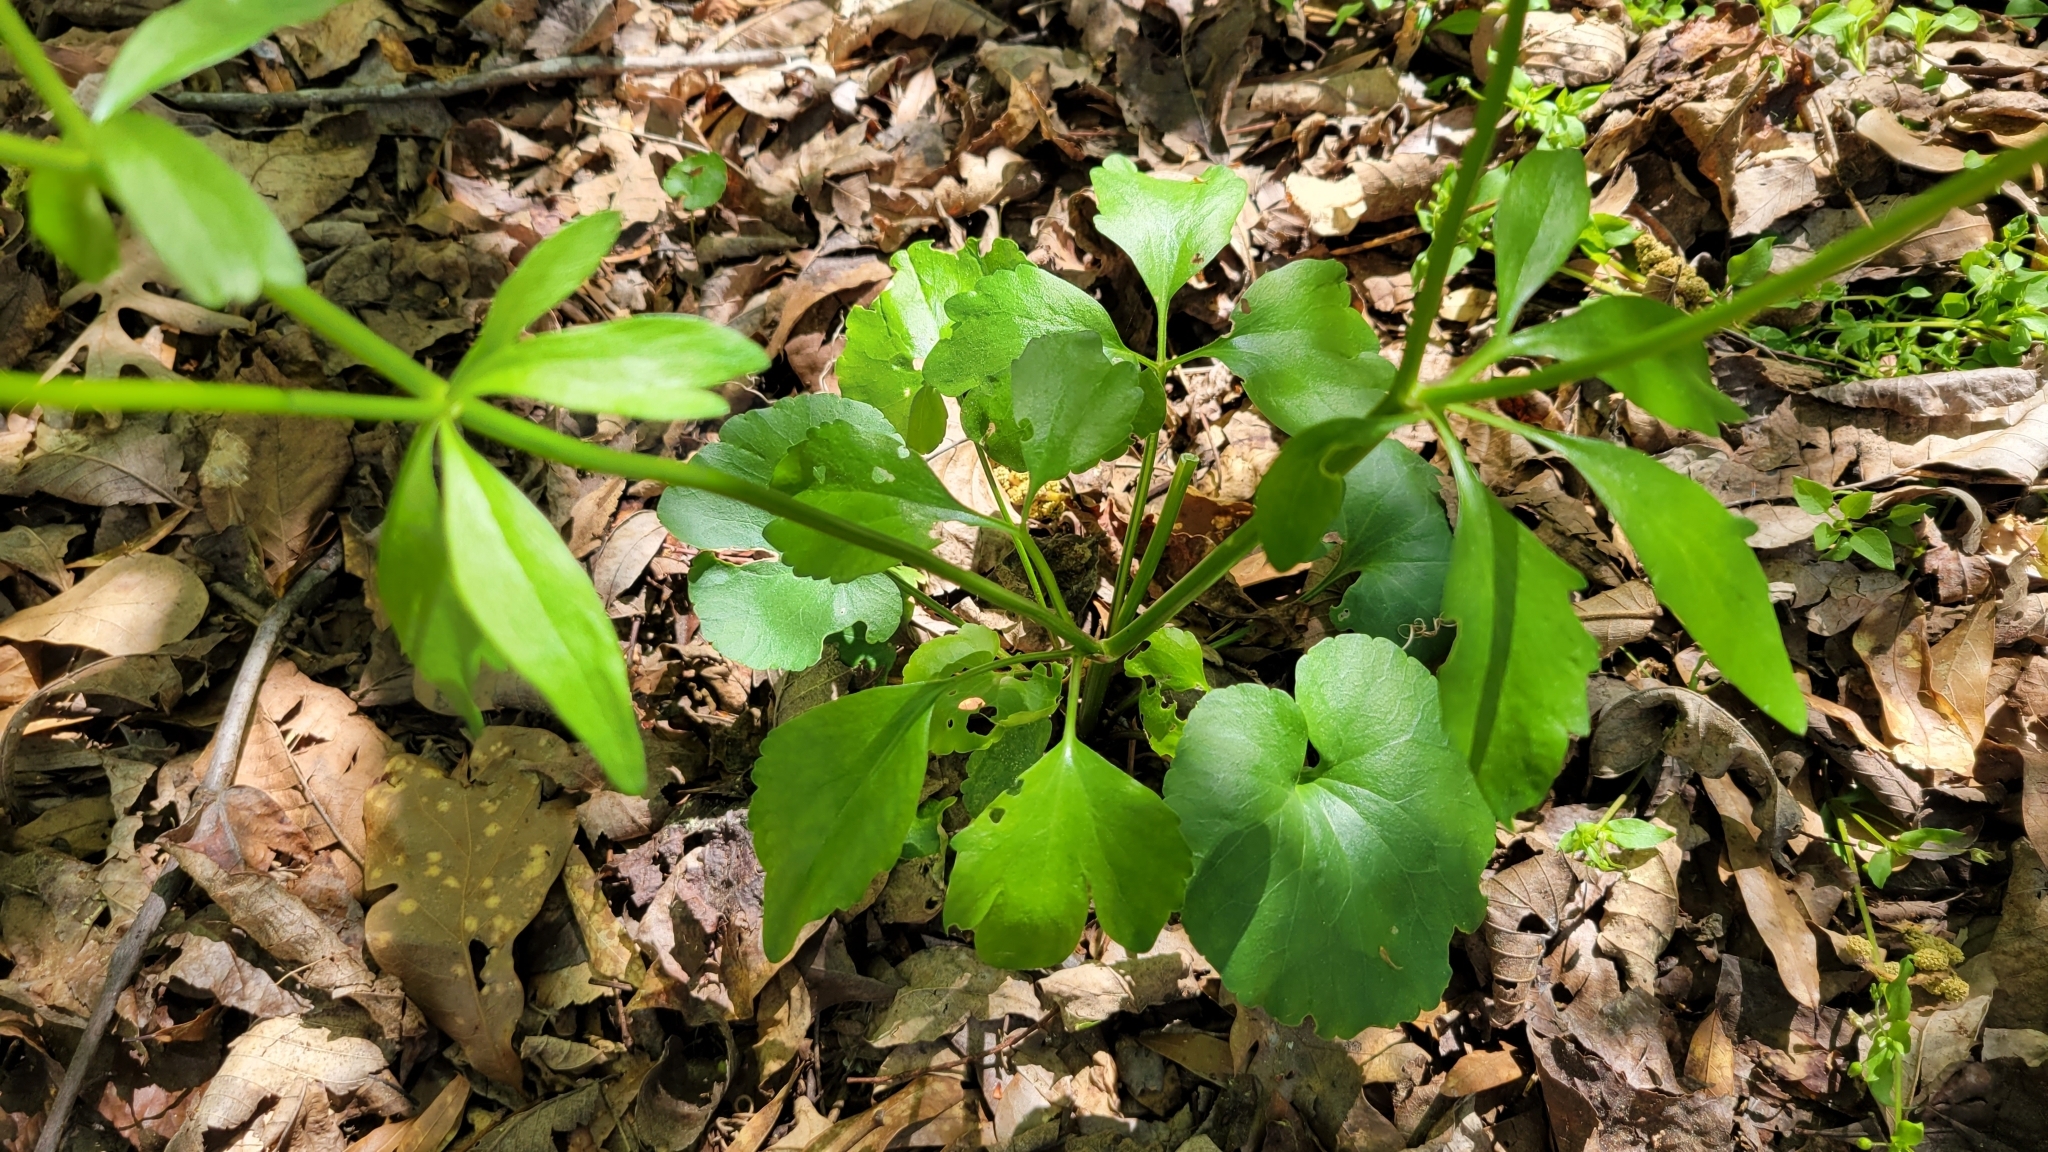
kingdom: Plantae
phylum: Tracheophyta
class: Magnoliopsida
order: Ranunculales
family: Ranunculaceae
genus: Ranunculus
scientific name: Ranunculus abortivus
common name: Early wood buttercup
